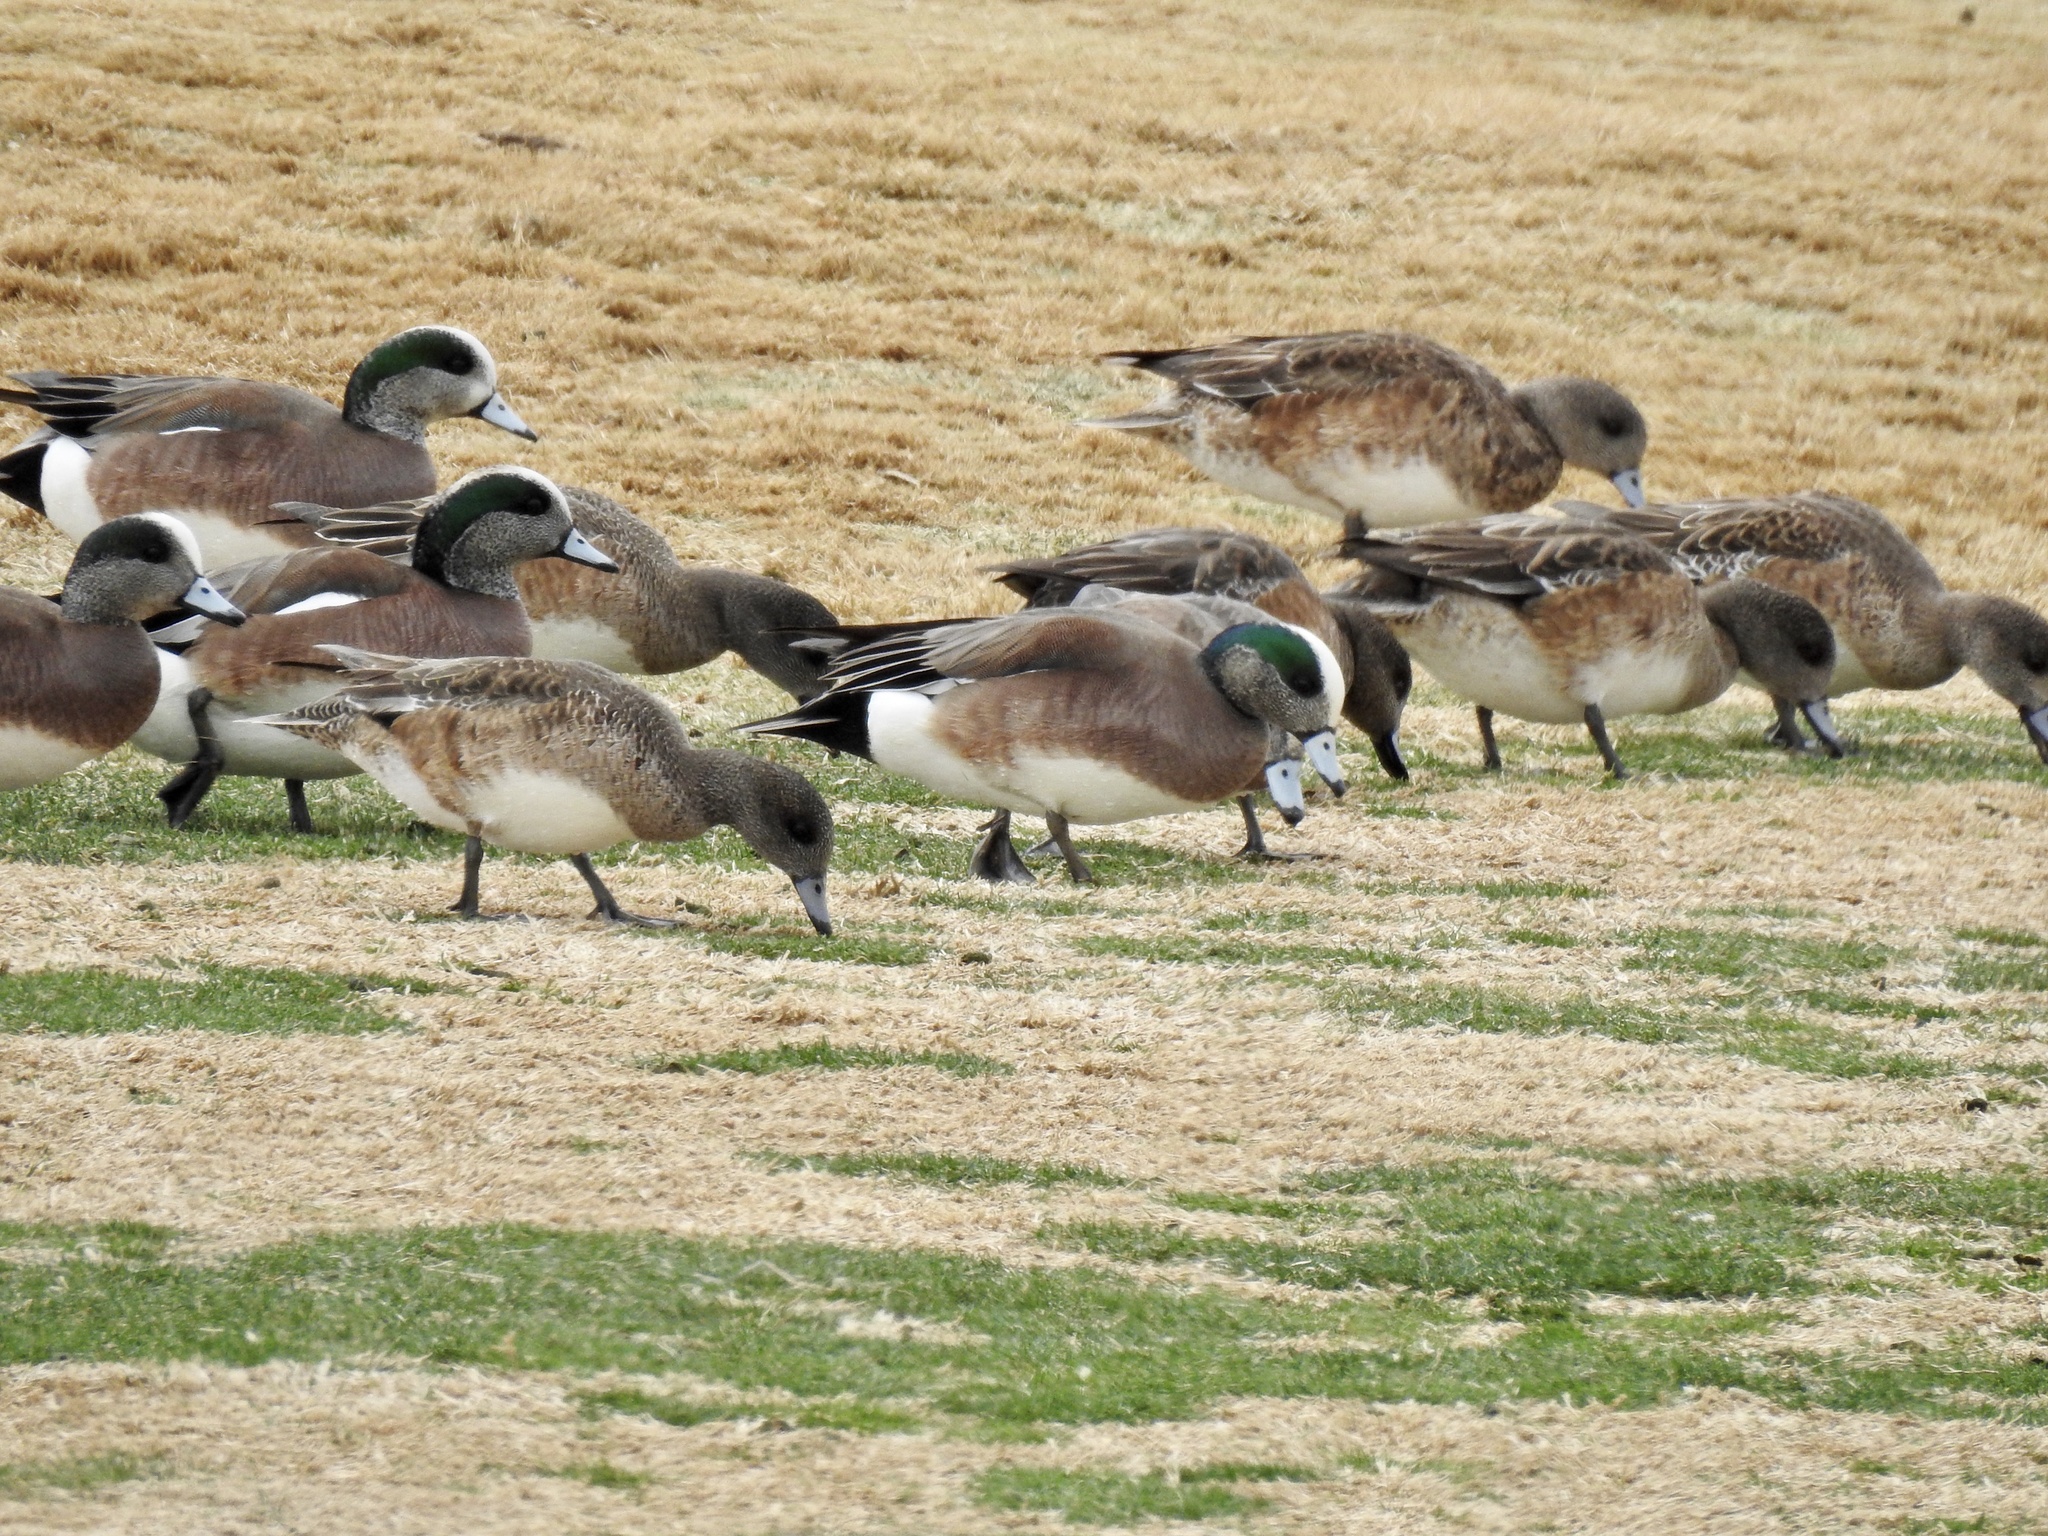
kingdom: Animalia
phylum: Chordata
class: Aves
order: Anseriformes
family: Anatidae
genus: Mareca
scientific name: Mareca americana
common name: American wigeon
